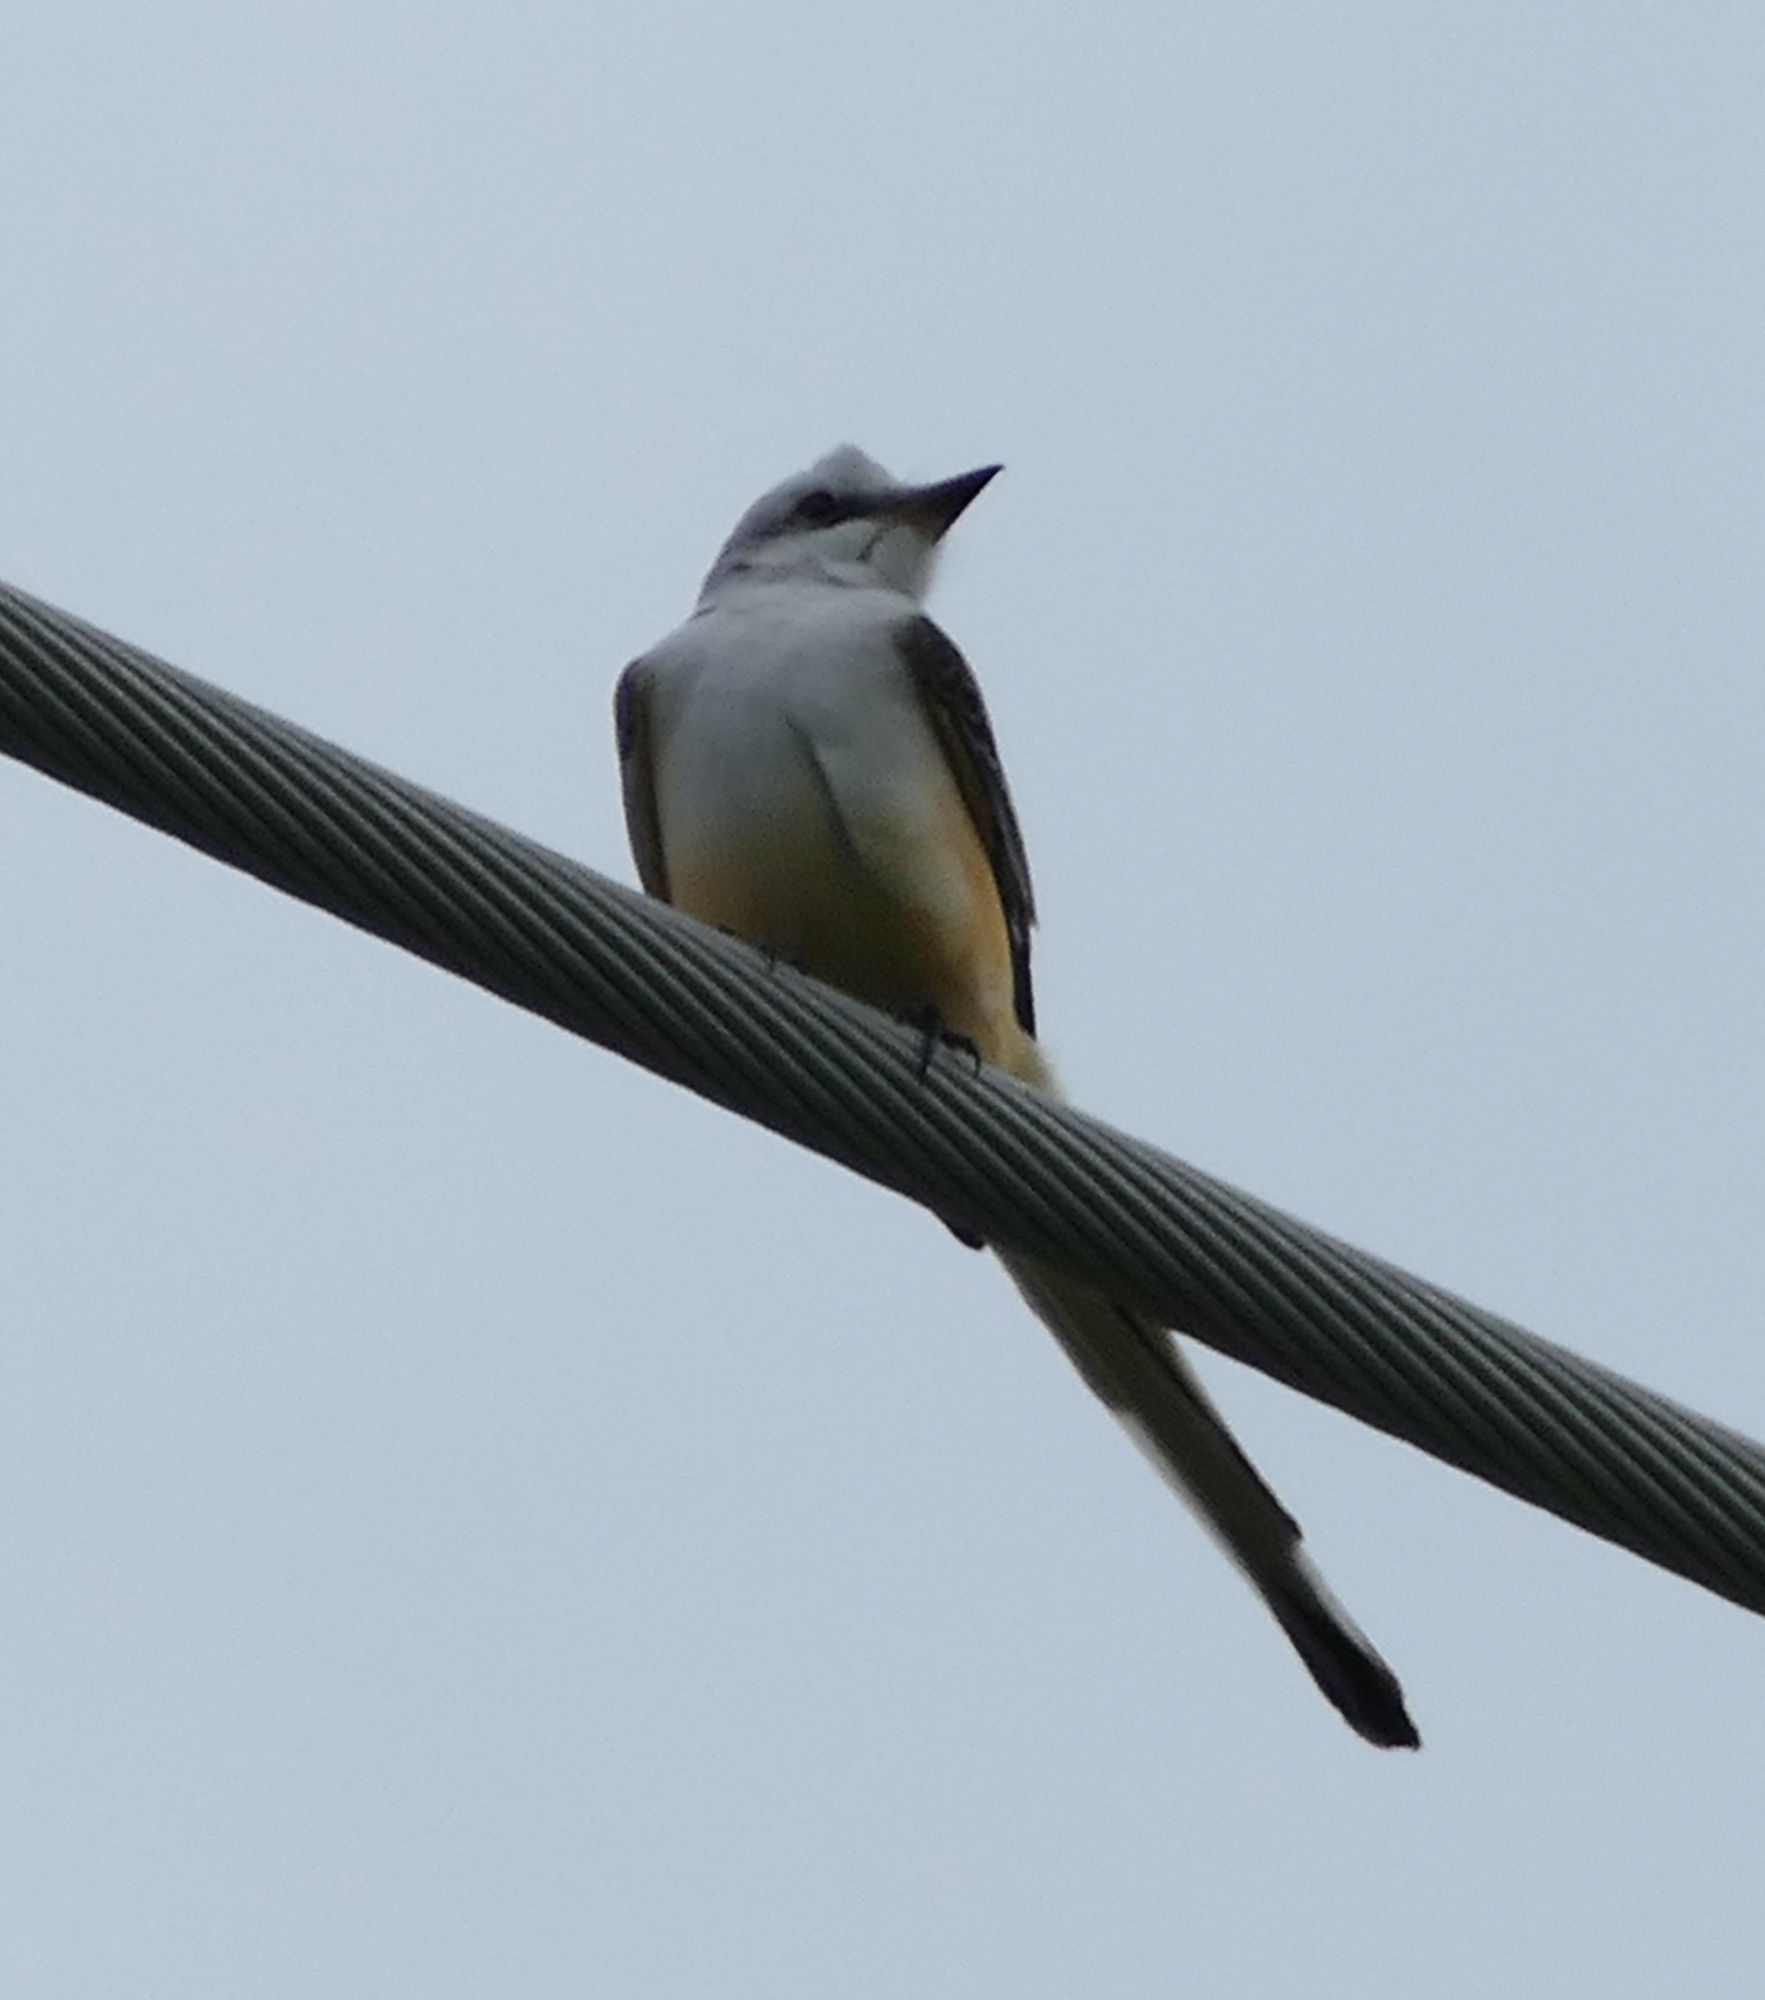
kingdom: Animalia
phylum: Chordata
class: Aves
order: Passeriformes
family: Tyrannidae
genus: Tyrannus
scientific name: Tyrannus forficatus
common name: Scissor-tailed flycatcher
